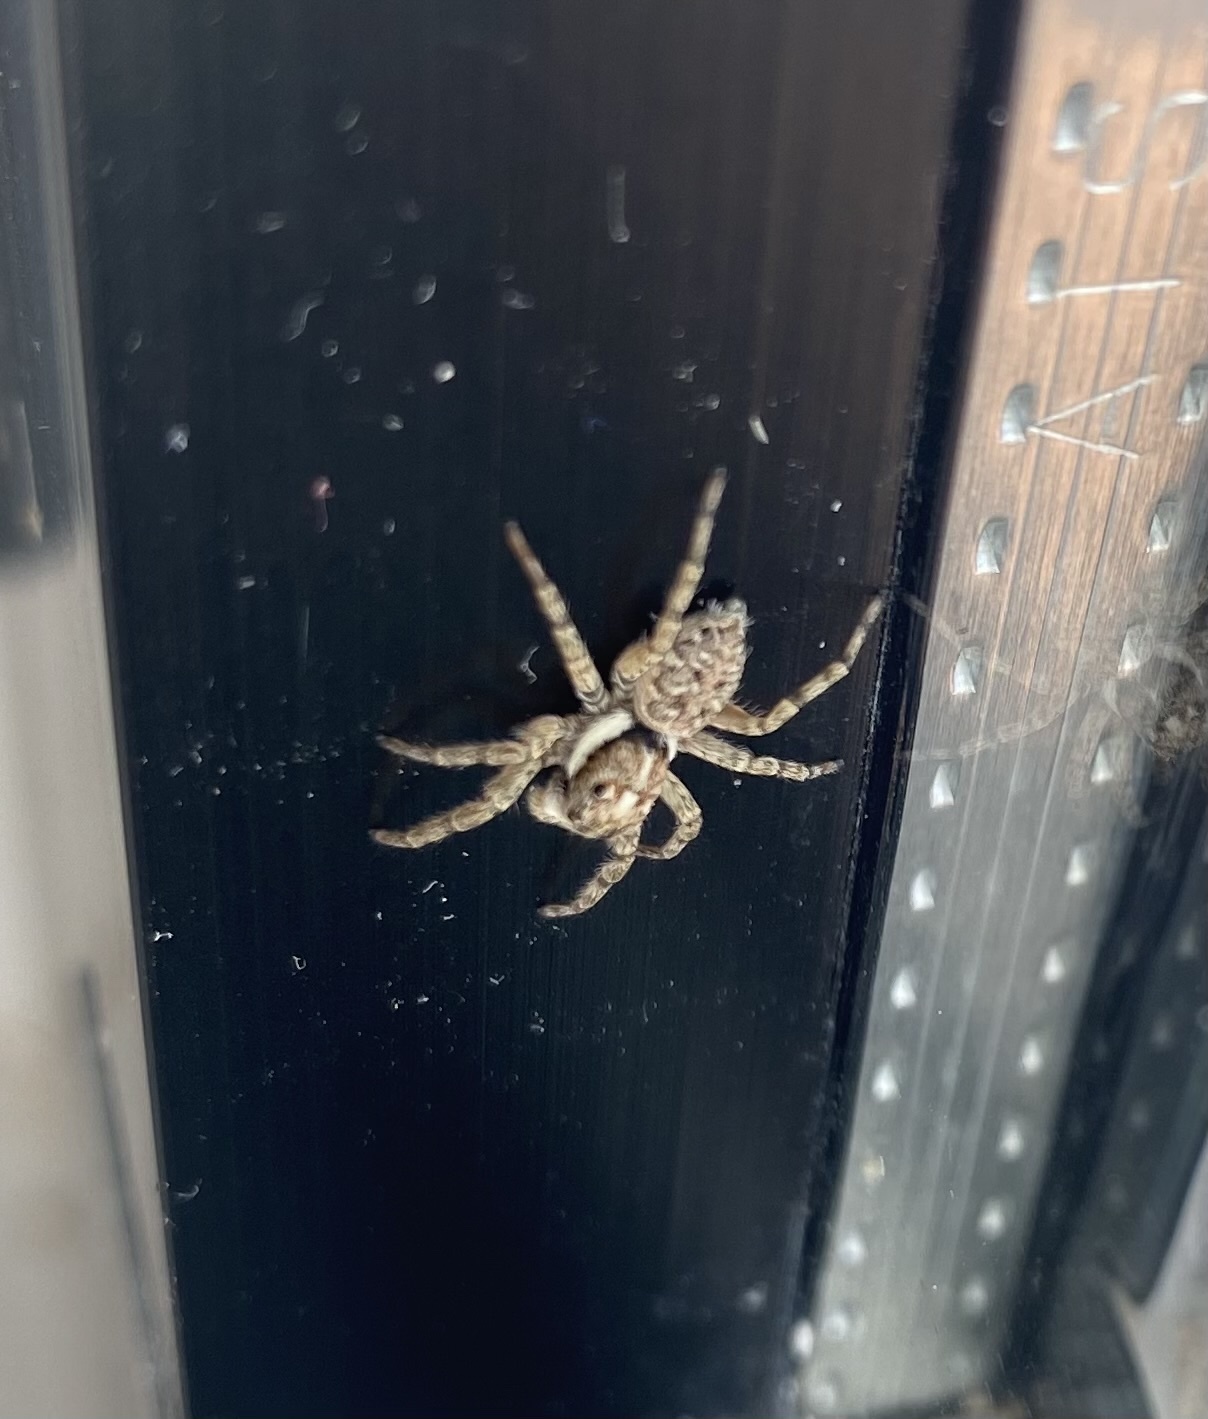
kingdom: Animalia
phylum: Arthropoda
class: Arachnida
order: Araneae
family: Salticidae
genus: Menemerus
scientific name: Menemerus semilimbatus
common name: Jumping spider
